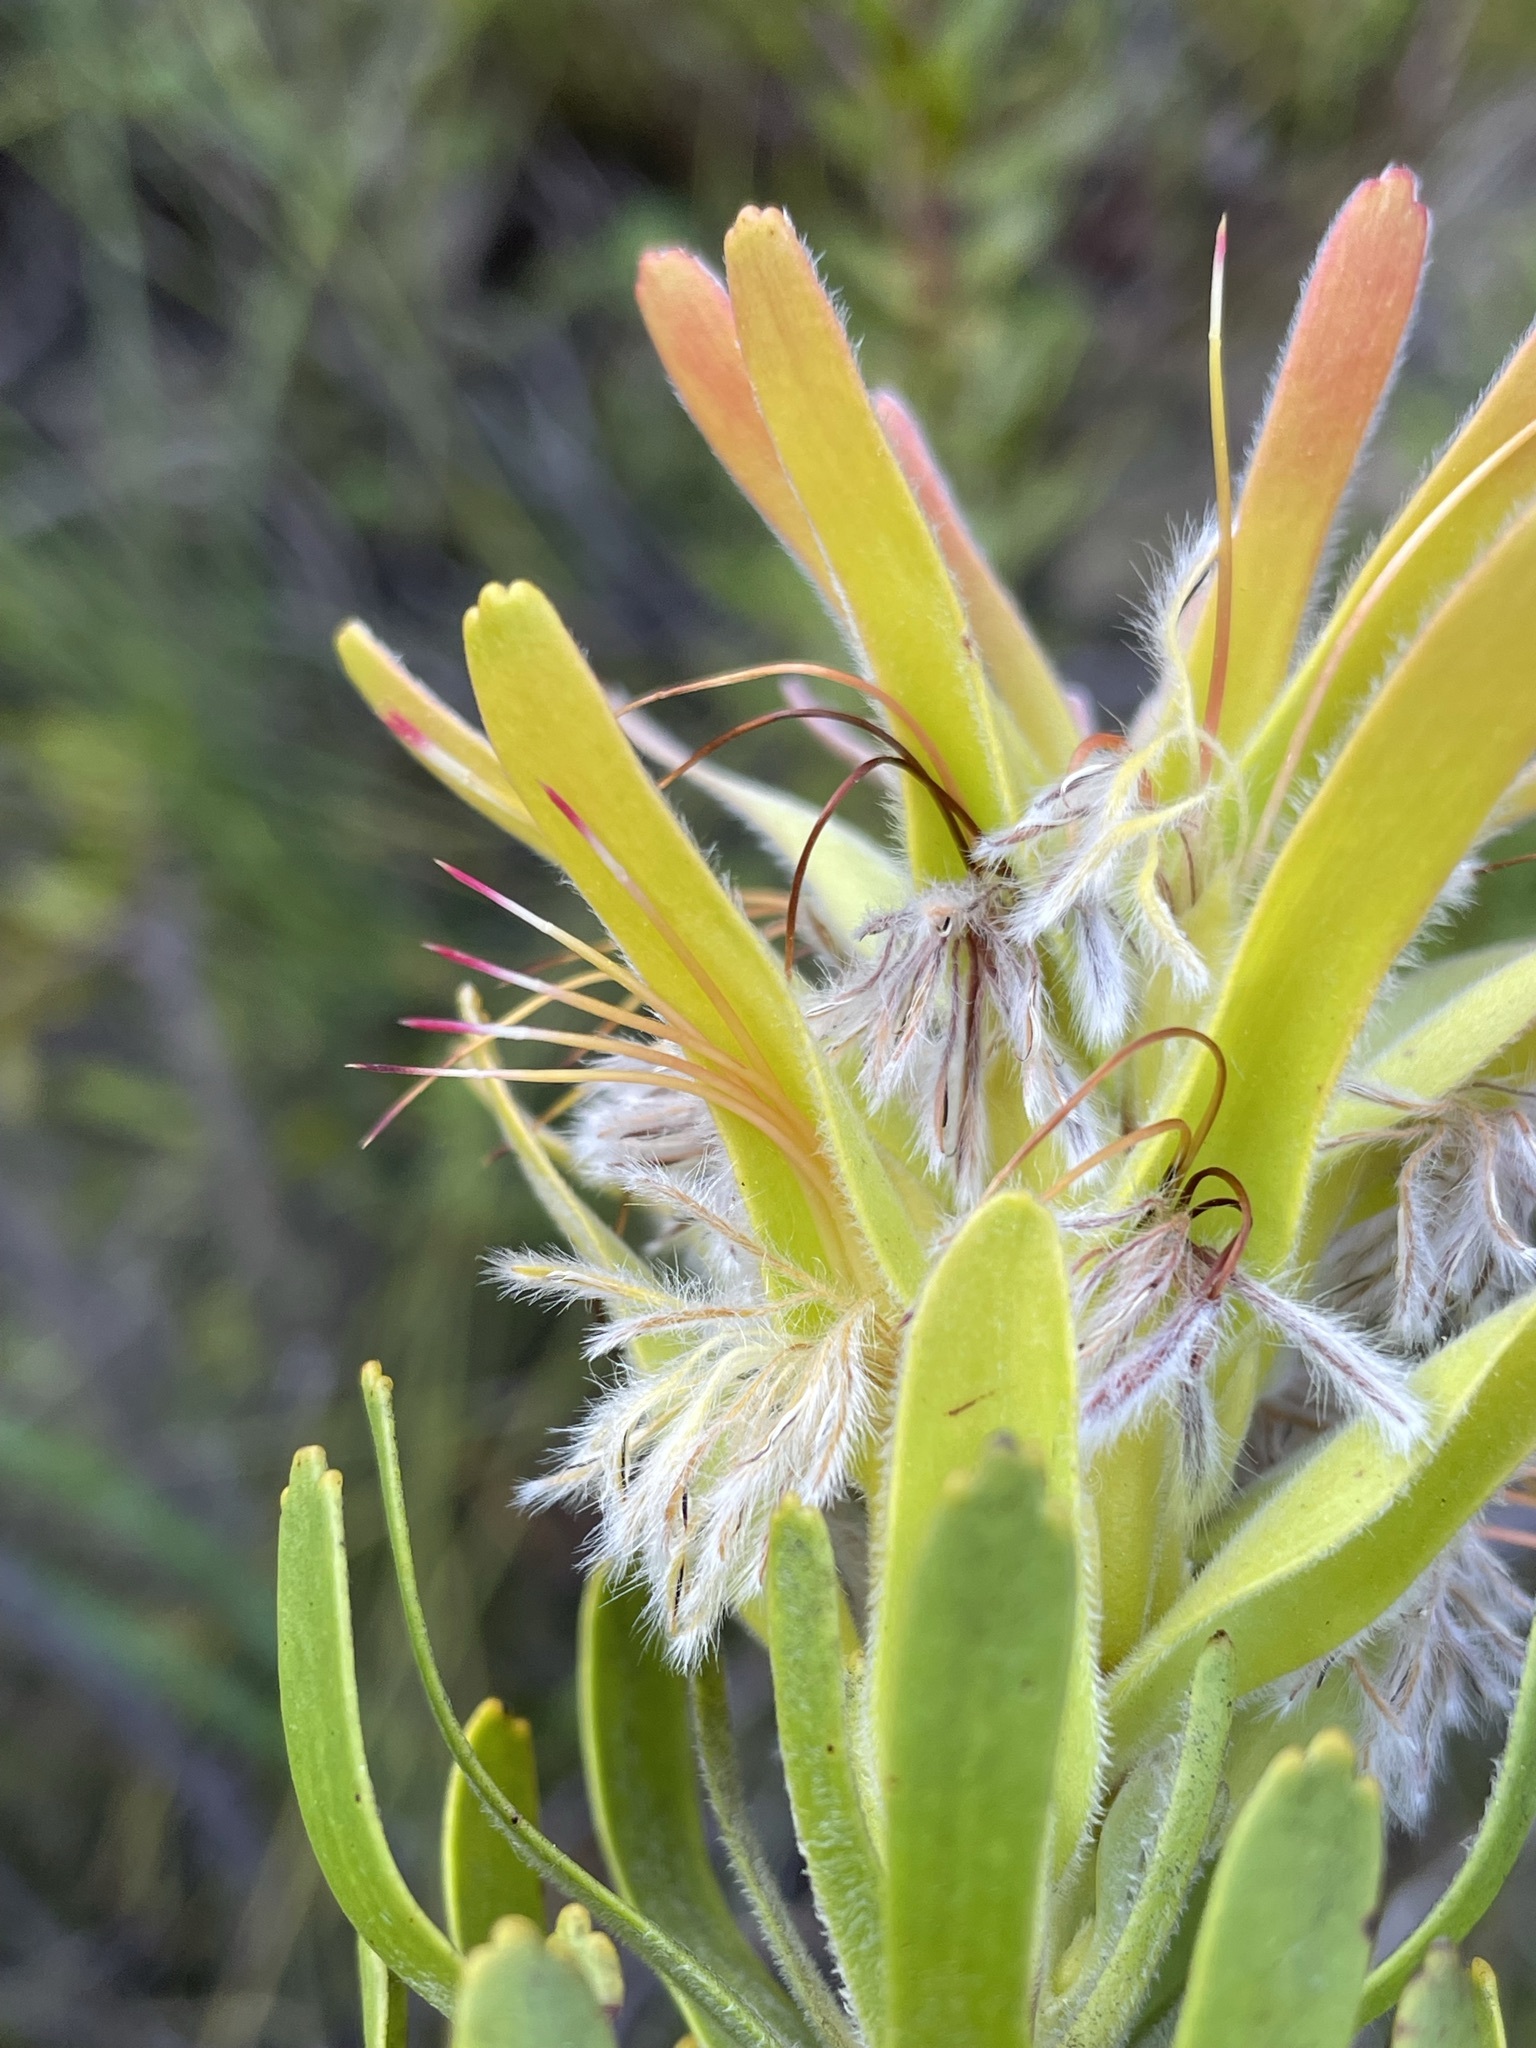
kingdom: Plantae
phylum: Tracheophyta
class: Magnoliopsida
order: Proteales
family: Proteaceae
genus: Mimetes
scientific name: Mimetes cucullatus
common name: Common pagoda
